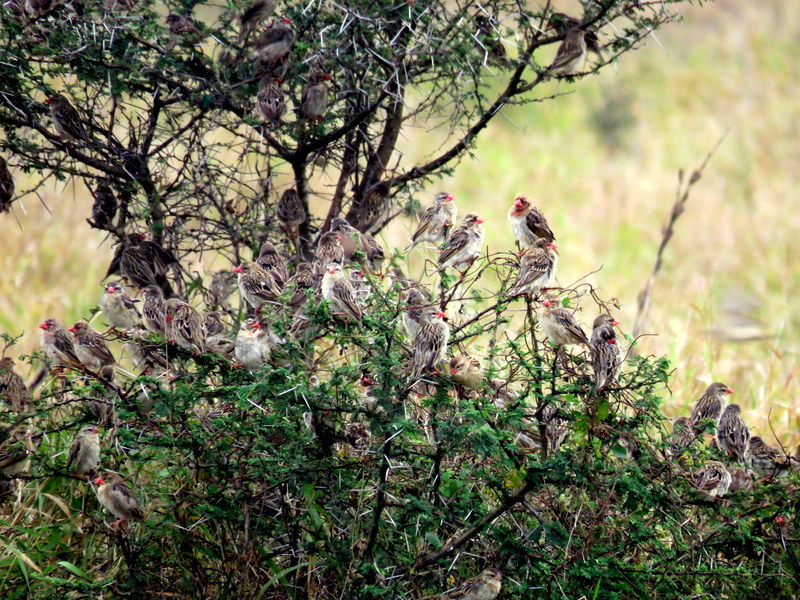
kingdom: Animalia
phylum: Chordata
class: Aves
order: Passeriformes
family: Ploceidae
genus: Quelea
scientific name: Quelea quelea
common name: Red-billed quelea
